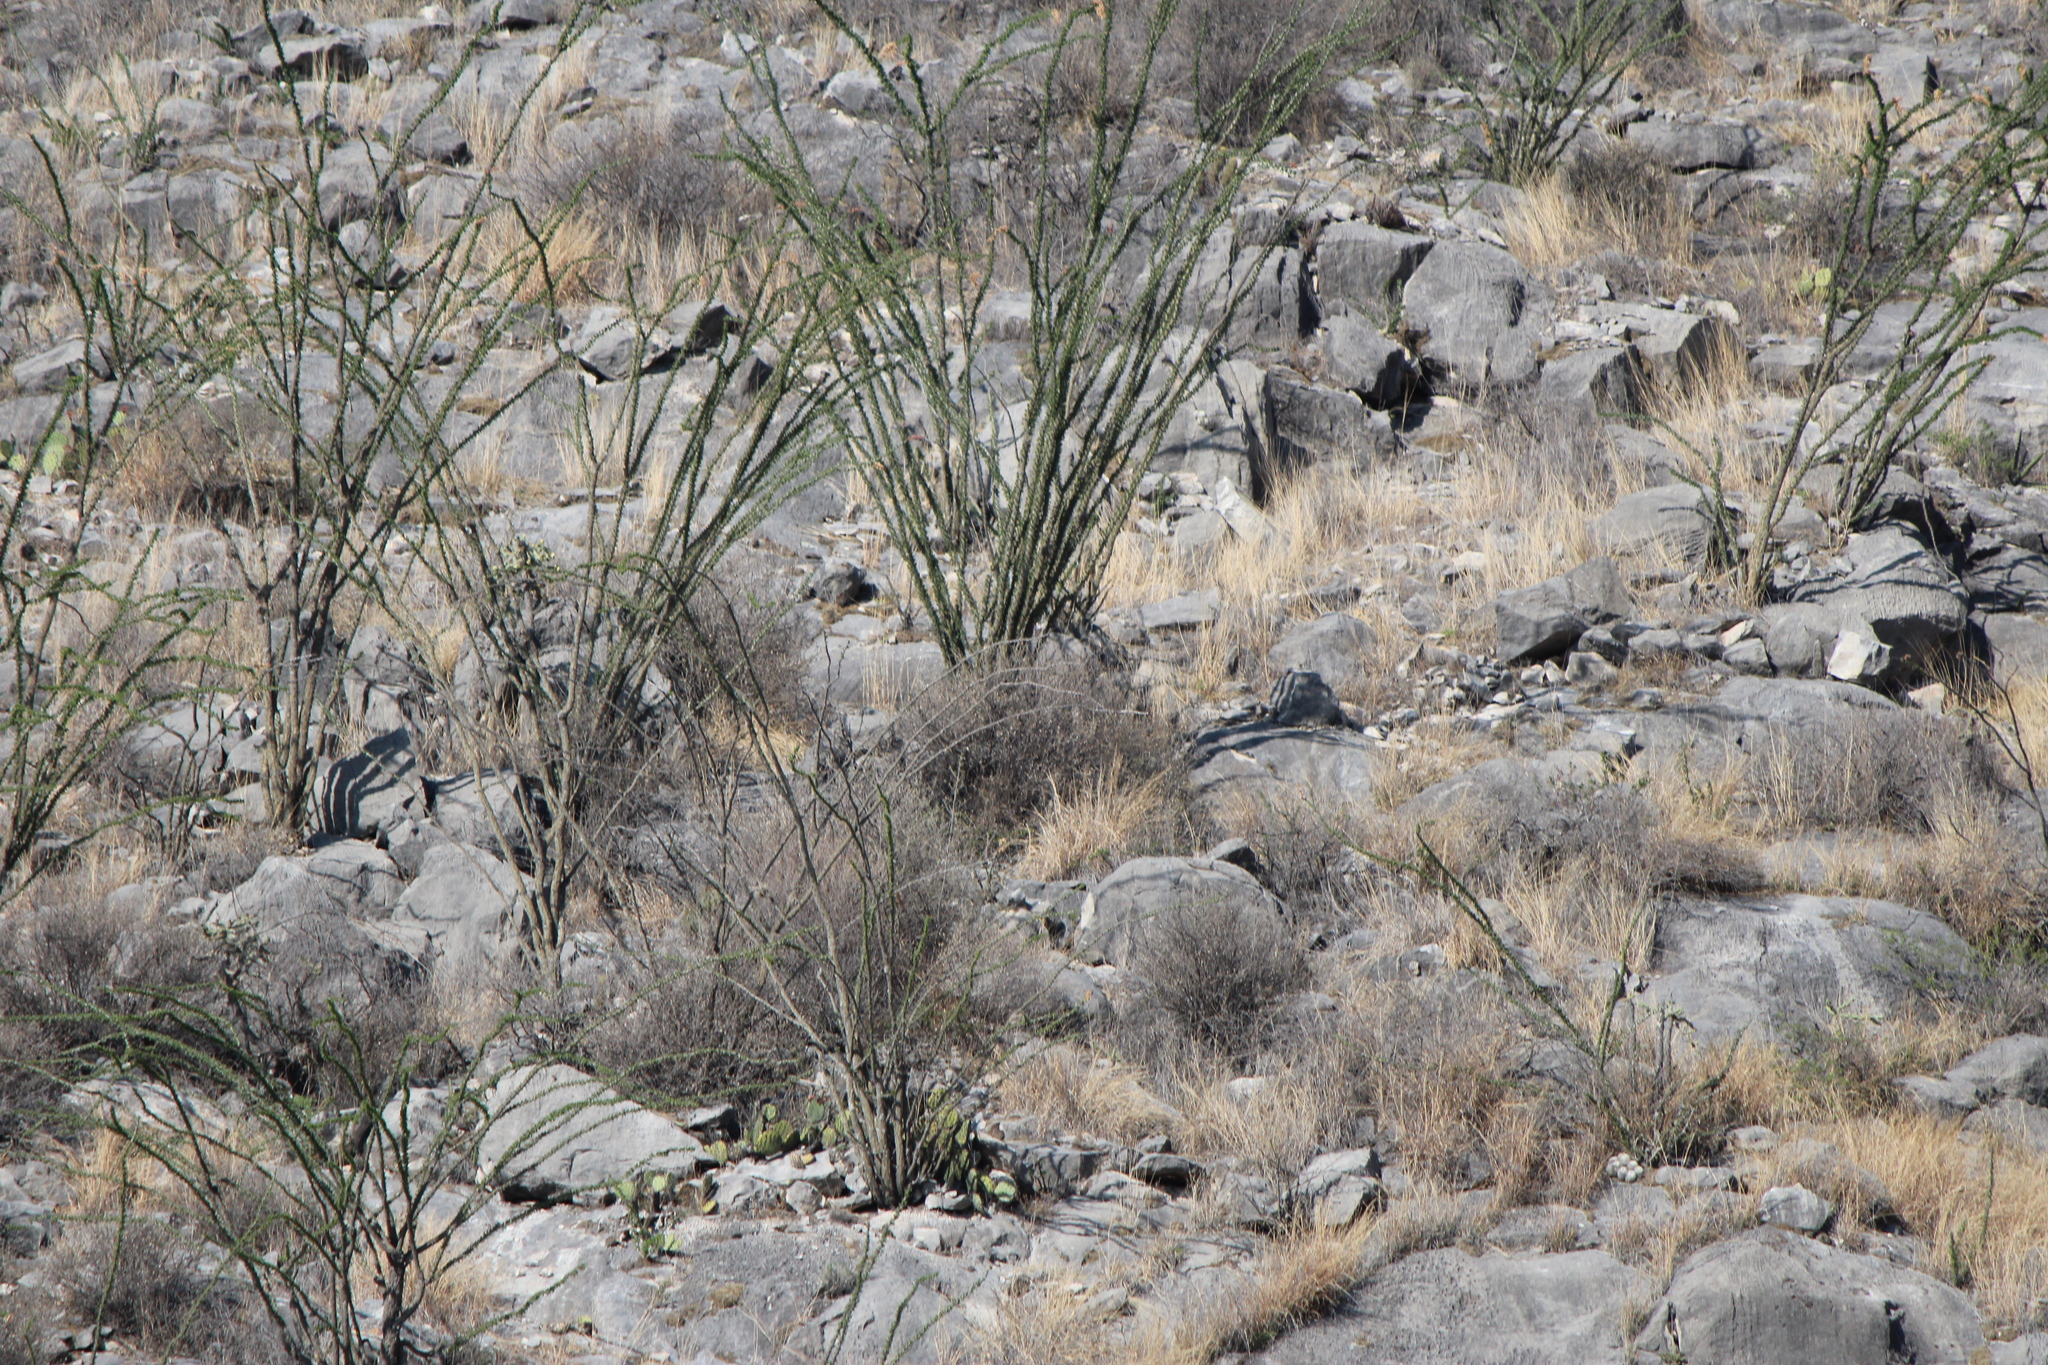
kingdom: Plantae
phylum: Tracheophyta
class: Magnoliopsida
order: Ericales
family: Fouquieriaceae
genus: Fouquieria
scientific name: Fouquieria splendens
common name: Vine-cactus
